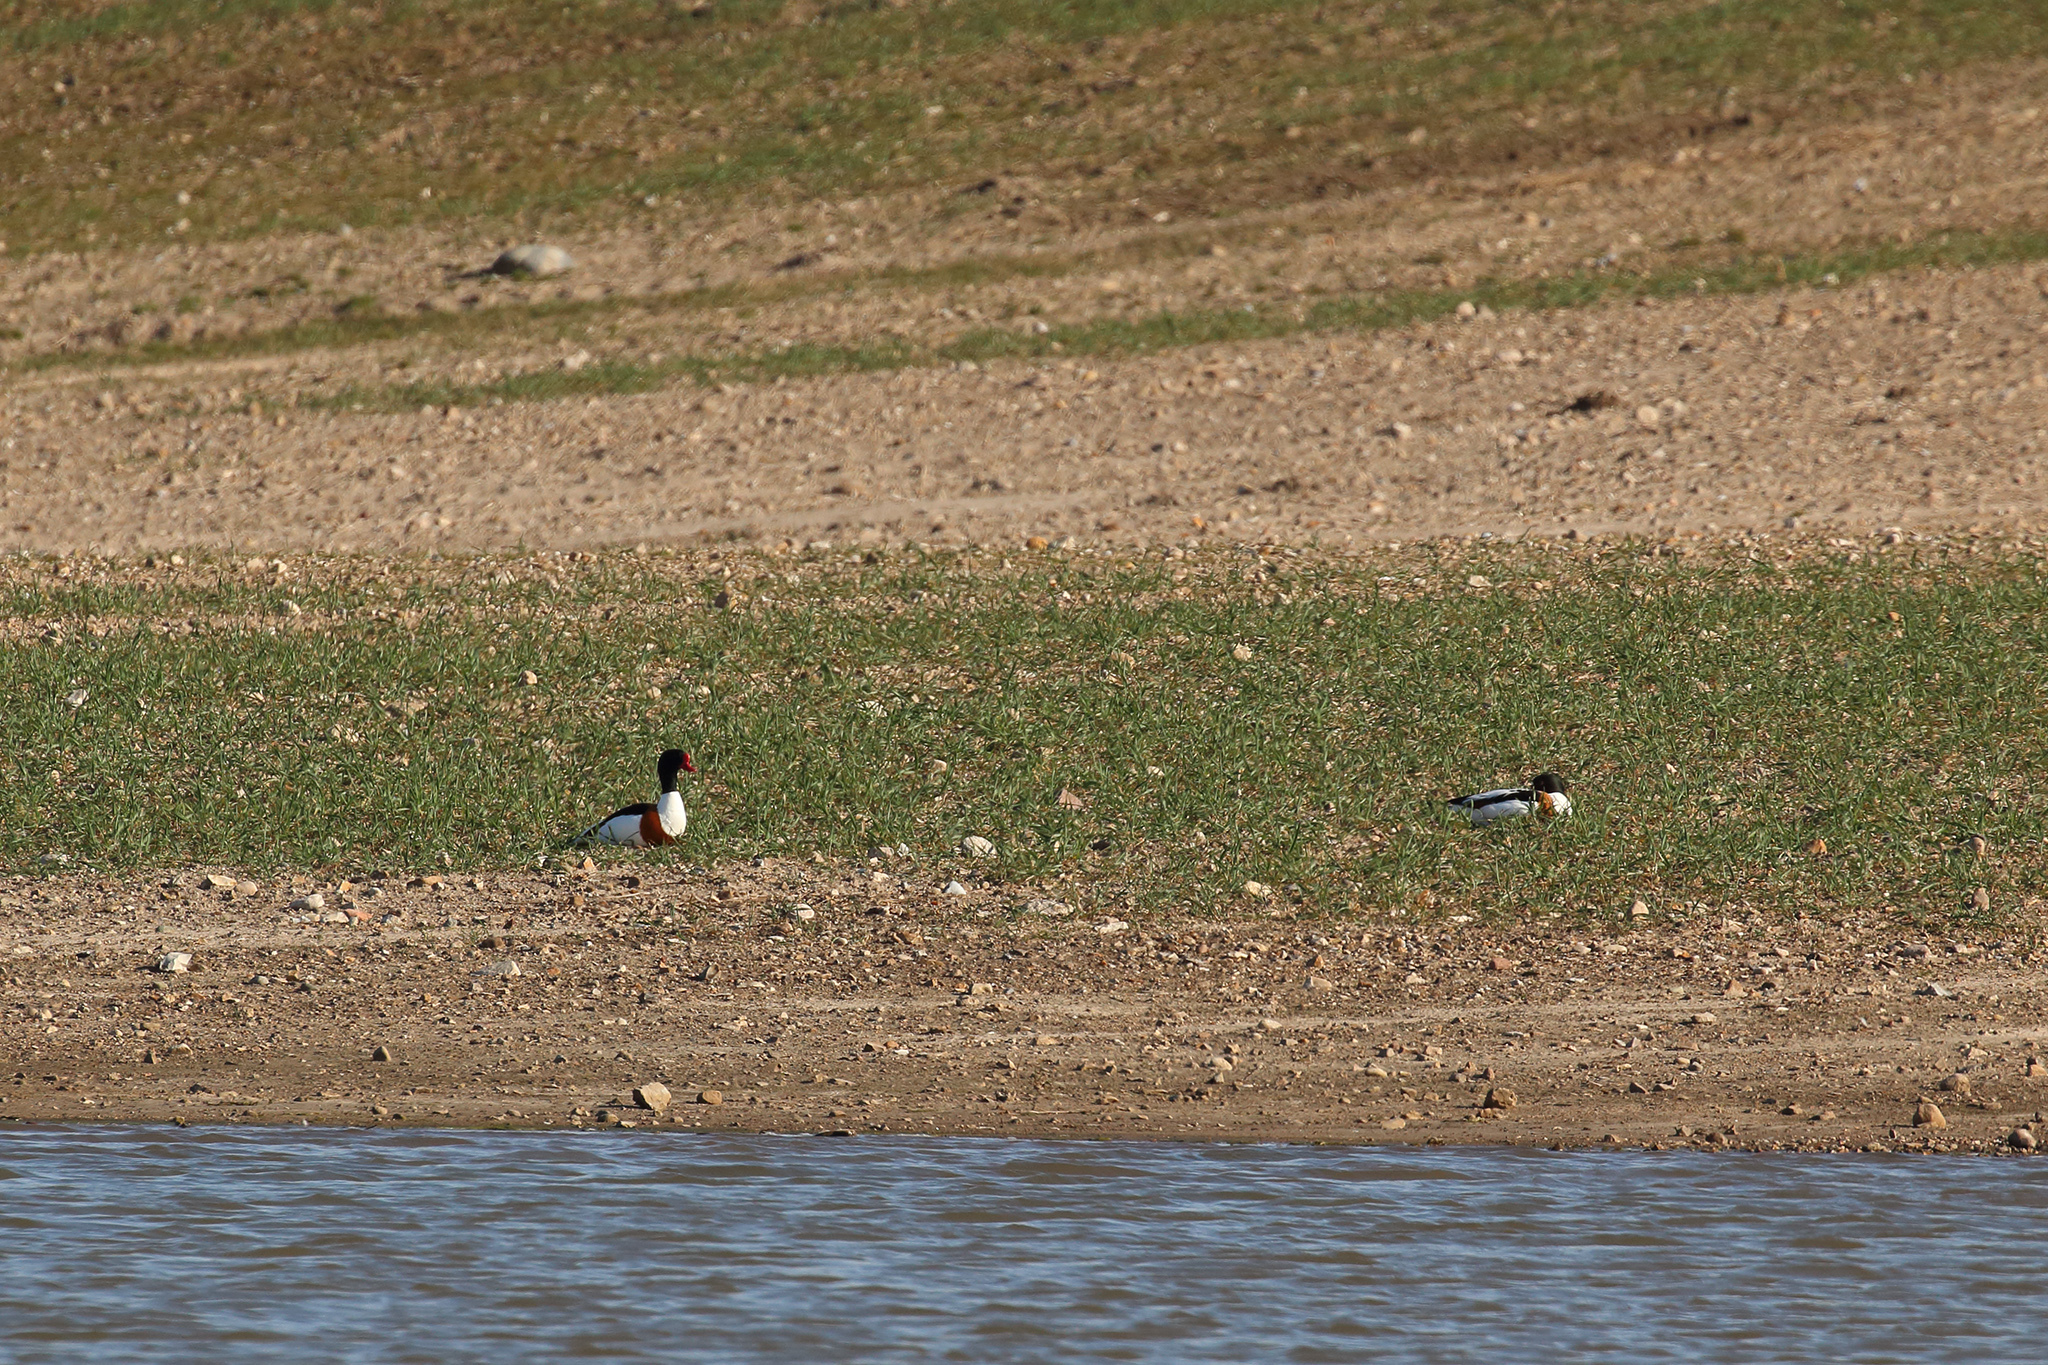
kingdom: Animalia
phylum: Chordata
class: Aves
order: Anseriformes
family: Anatidae
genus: Tadorna
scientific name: Tadorna tadorna
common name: Common shelduck
